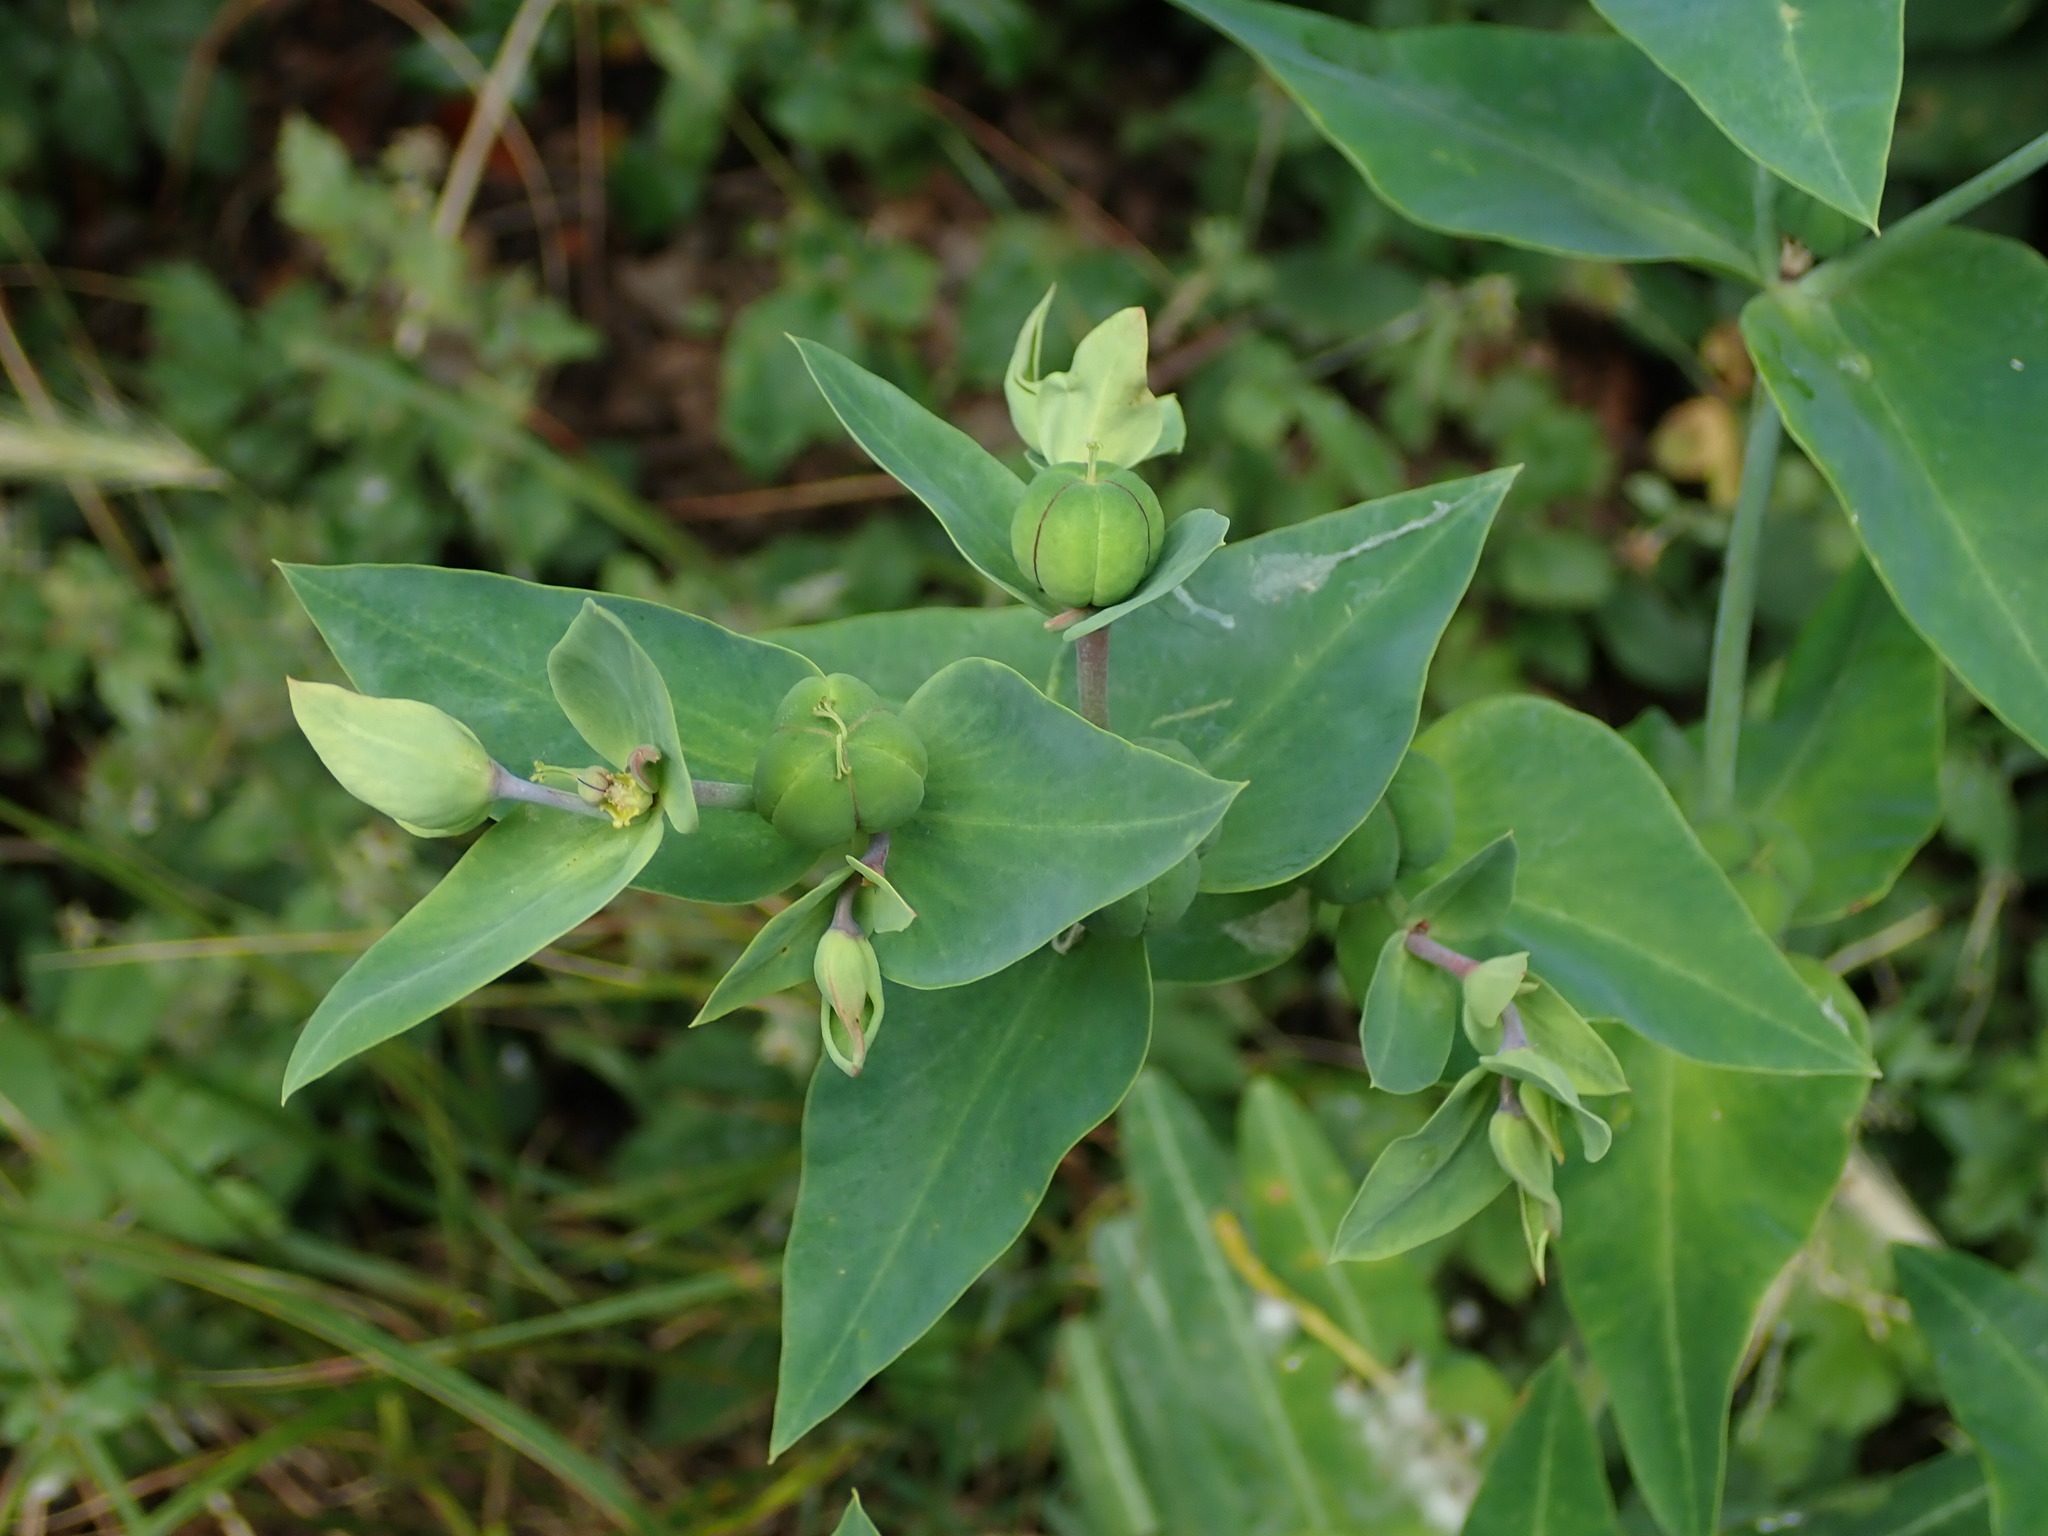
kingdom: Plantae
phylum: Tracheophyta
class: Magnoliopsida
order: Malpighiales
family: Euphorbiaceae
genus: Euphorbia
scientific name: Euphorbia lathyris
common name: Caper spurge
